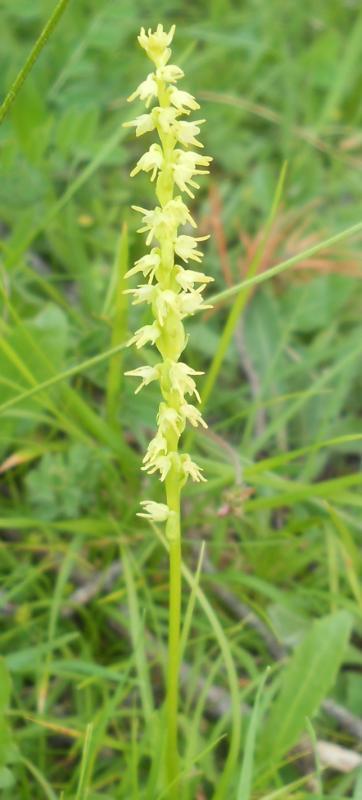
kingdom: Plantae
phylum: Tracheophyta
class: Liliopsida
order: Asparagales
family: Orchidaceae
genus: Herminium
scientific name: Herminium monorchis
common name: Musk orchid
